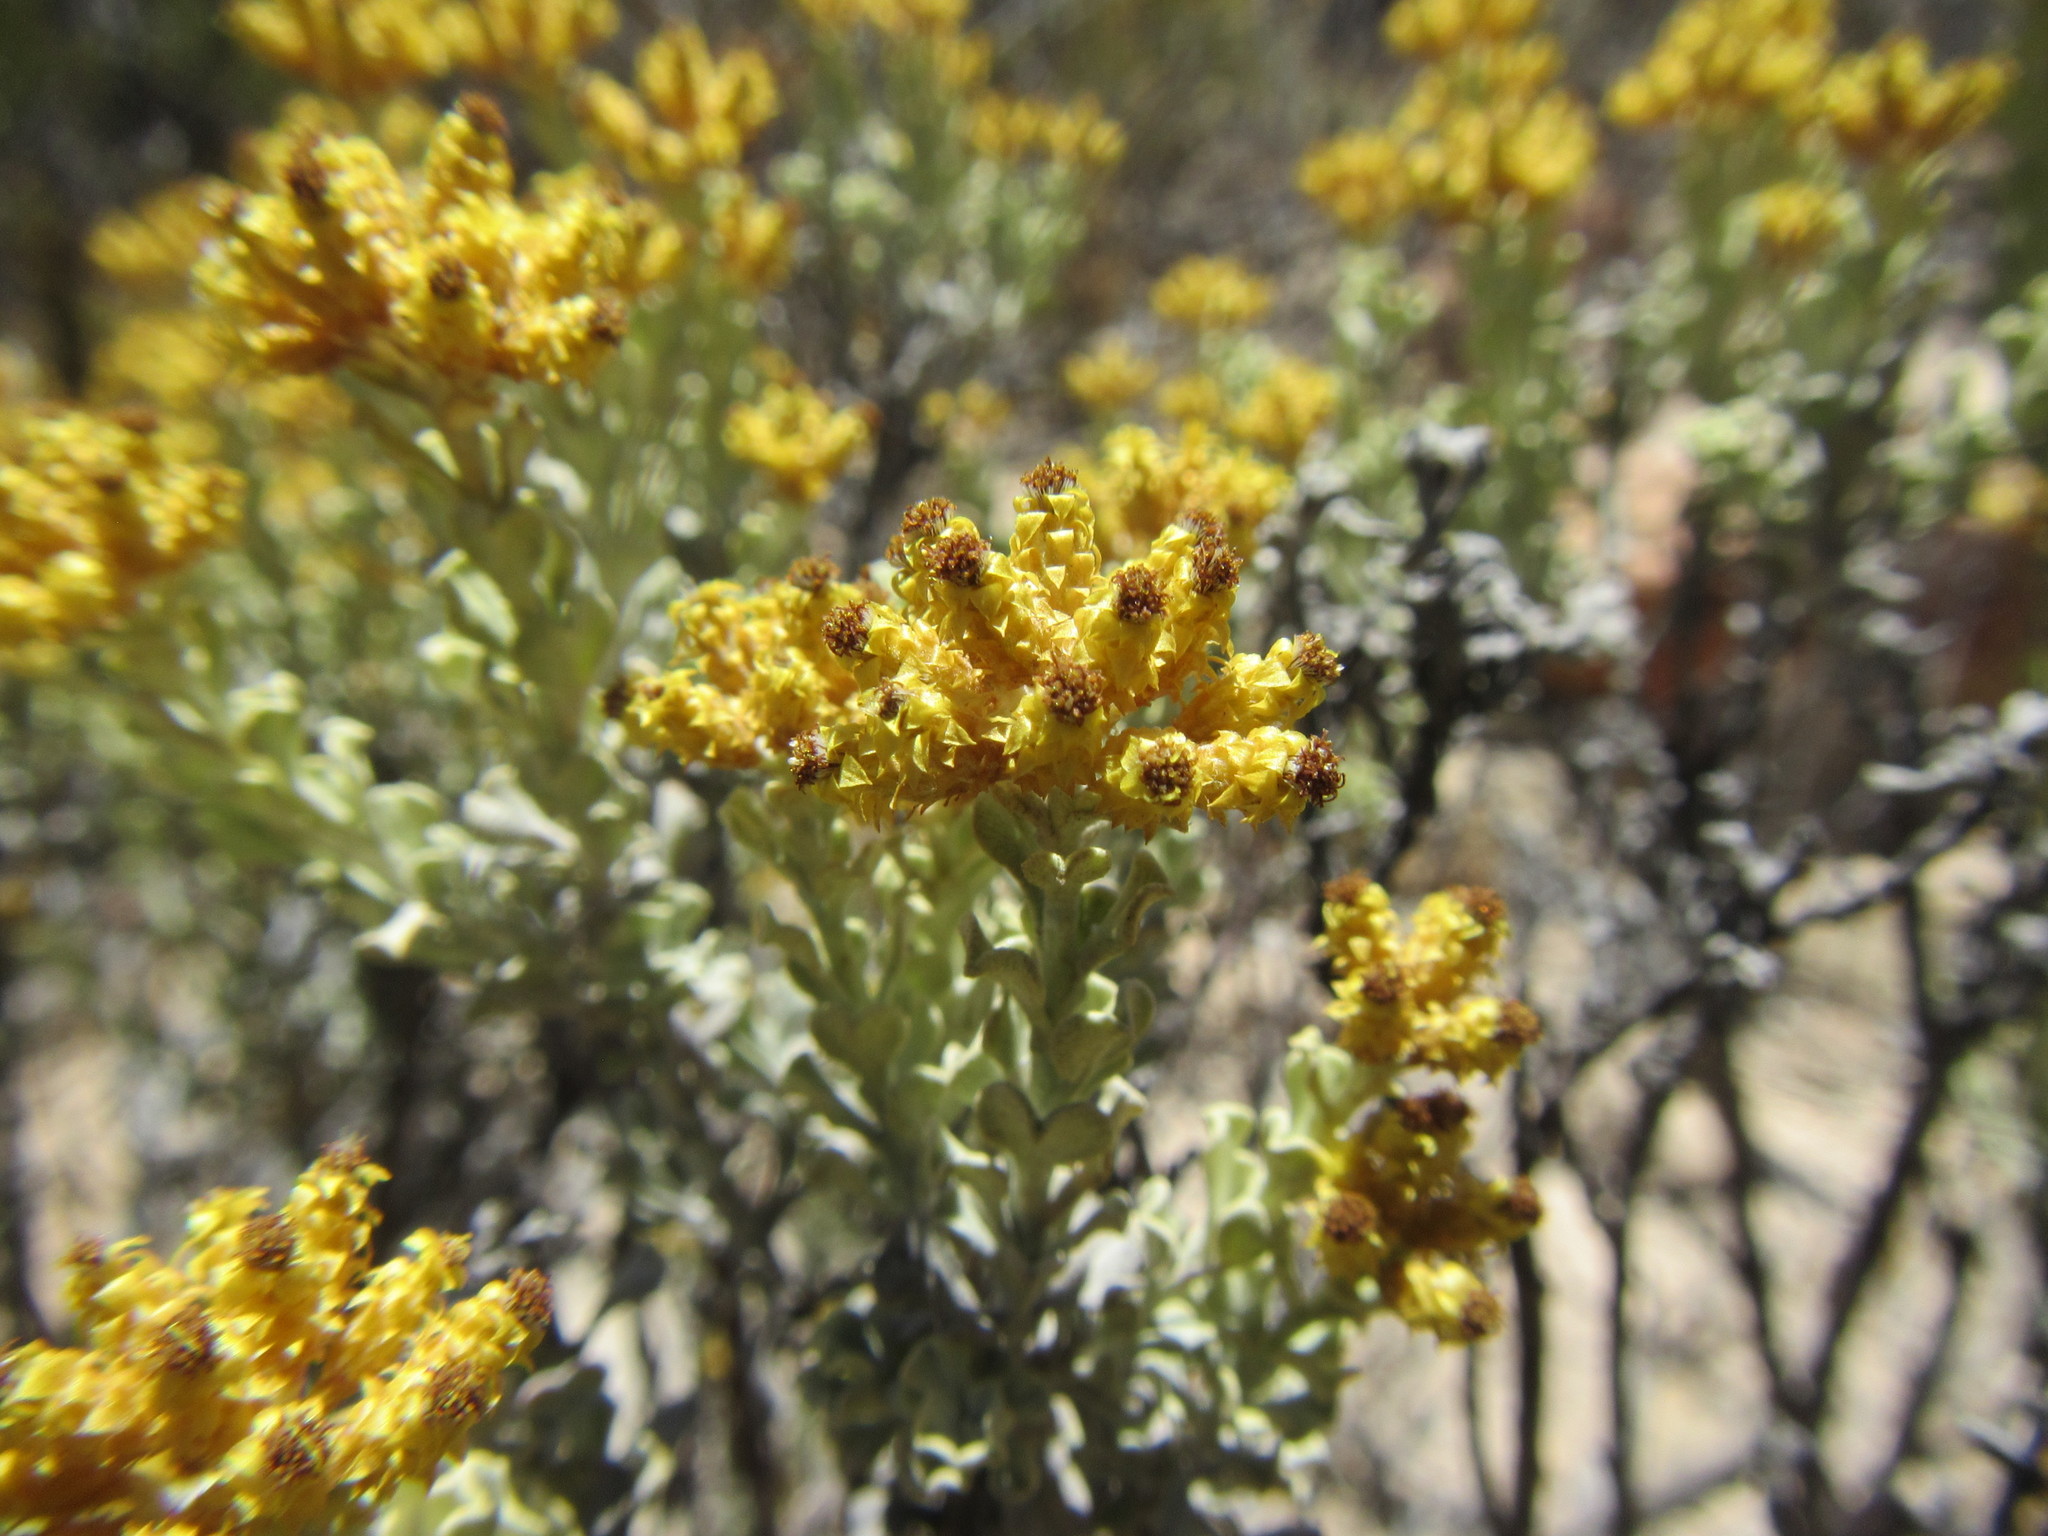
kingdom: Plantae
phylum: Tracheophyta
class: Magnoliopsida
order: Asterales
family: Asteraceae
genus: Helichrysum
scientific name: Helichrysum excisum
